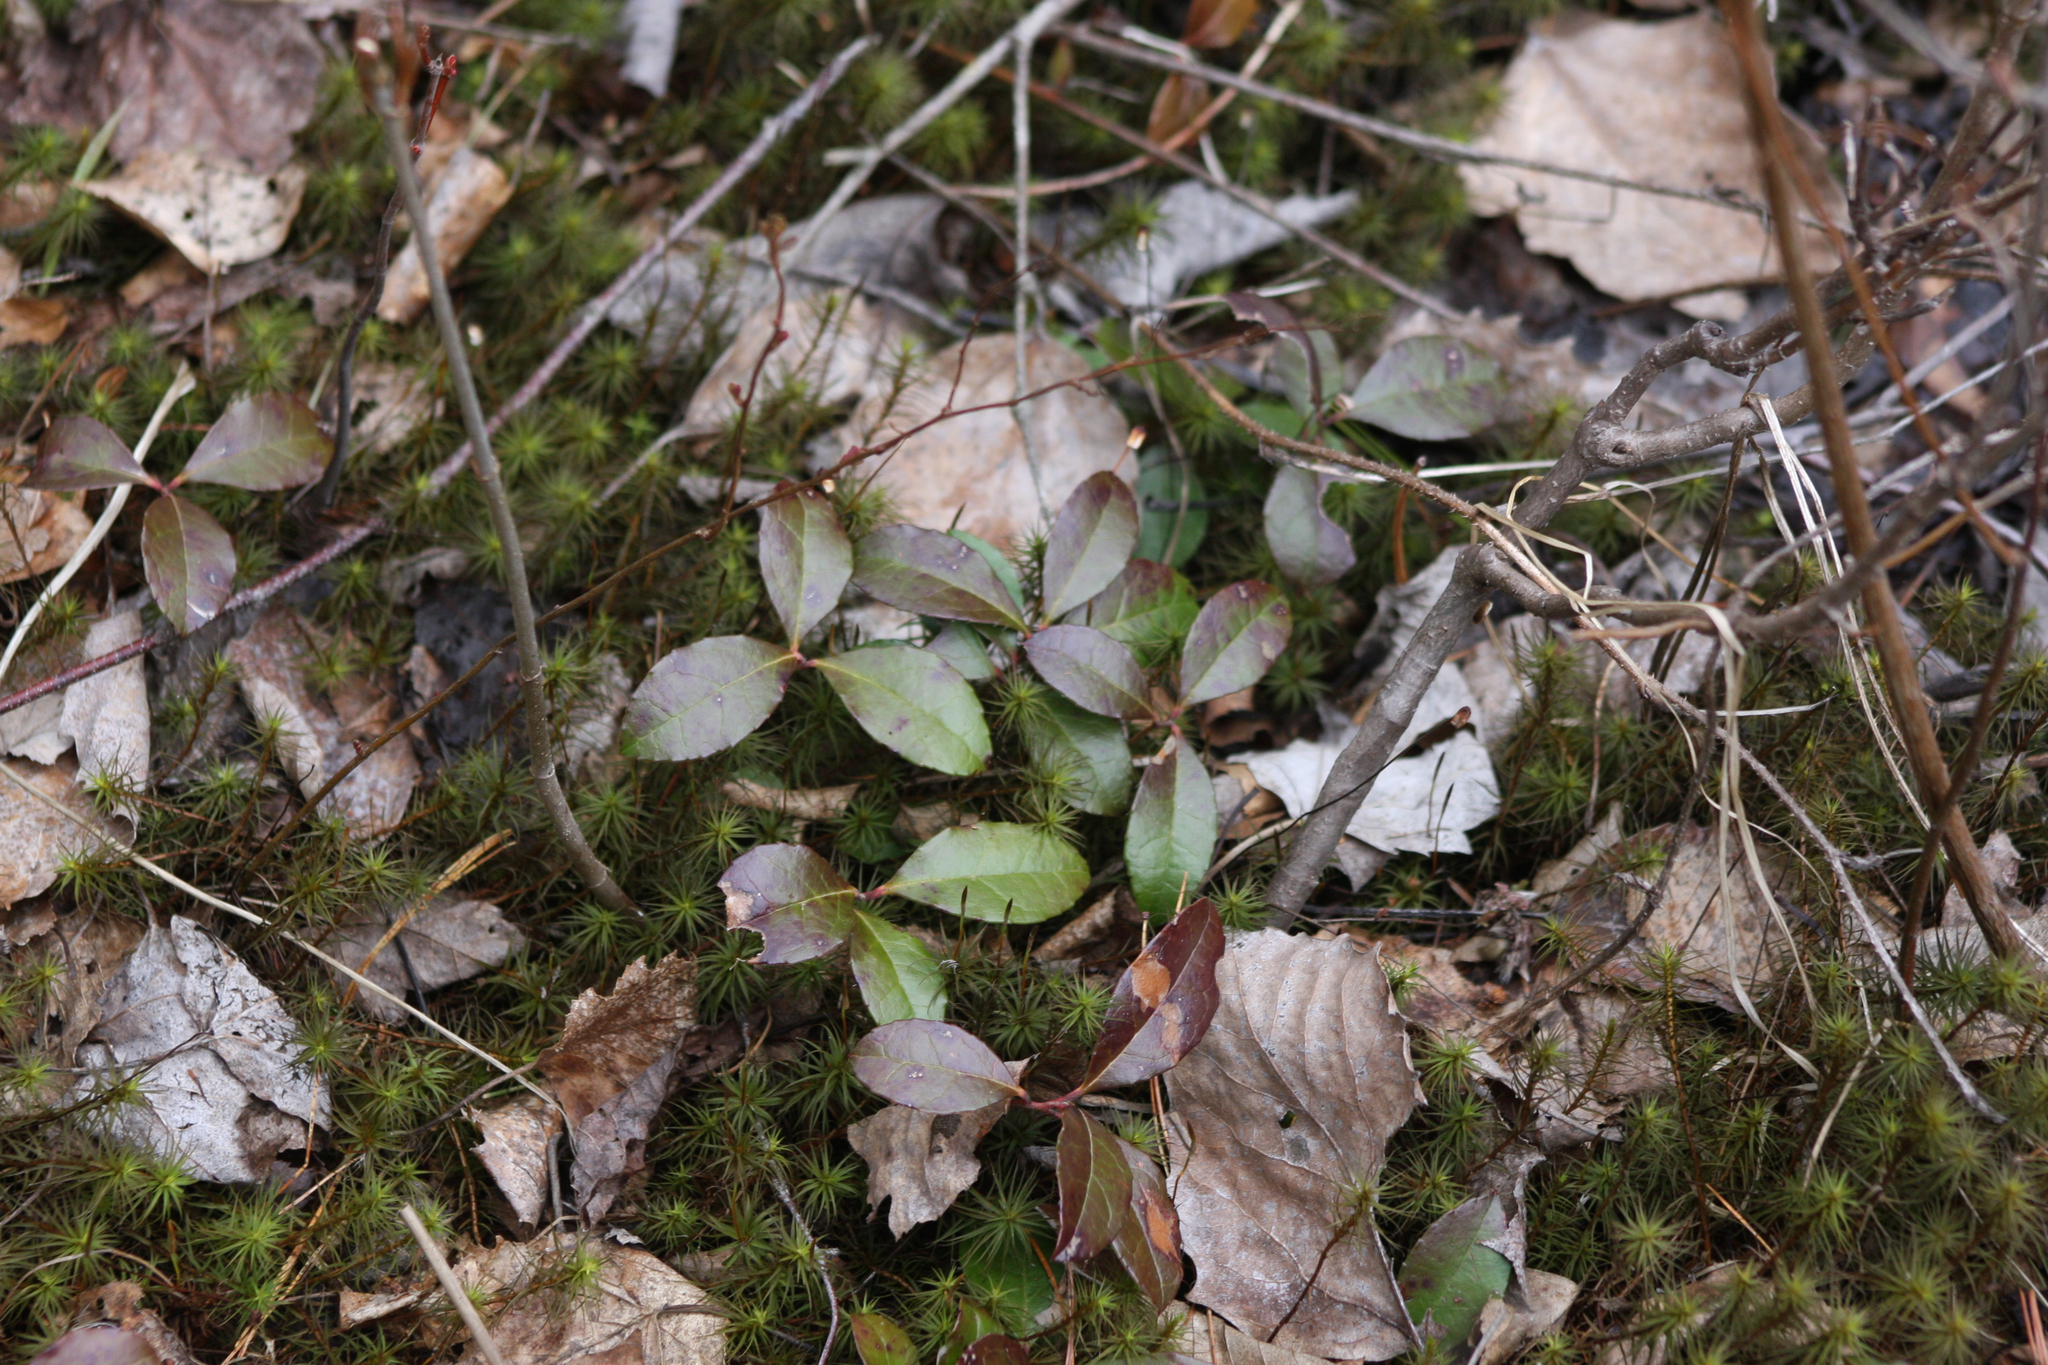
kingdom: Plantae
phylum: Tracheophyta
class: Magnoliopsida
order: Ericales
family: Ericaceae
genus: Gaultheria
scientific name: Gaultheria procumbens
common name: Checkerberry
